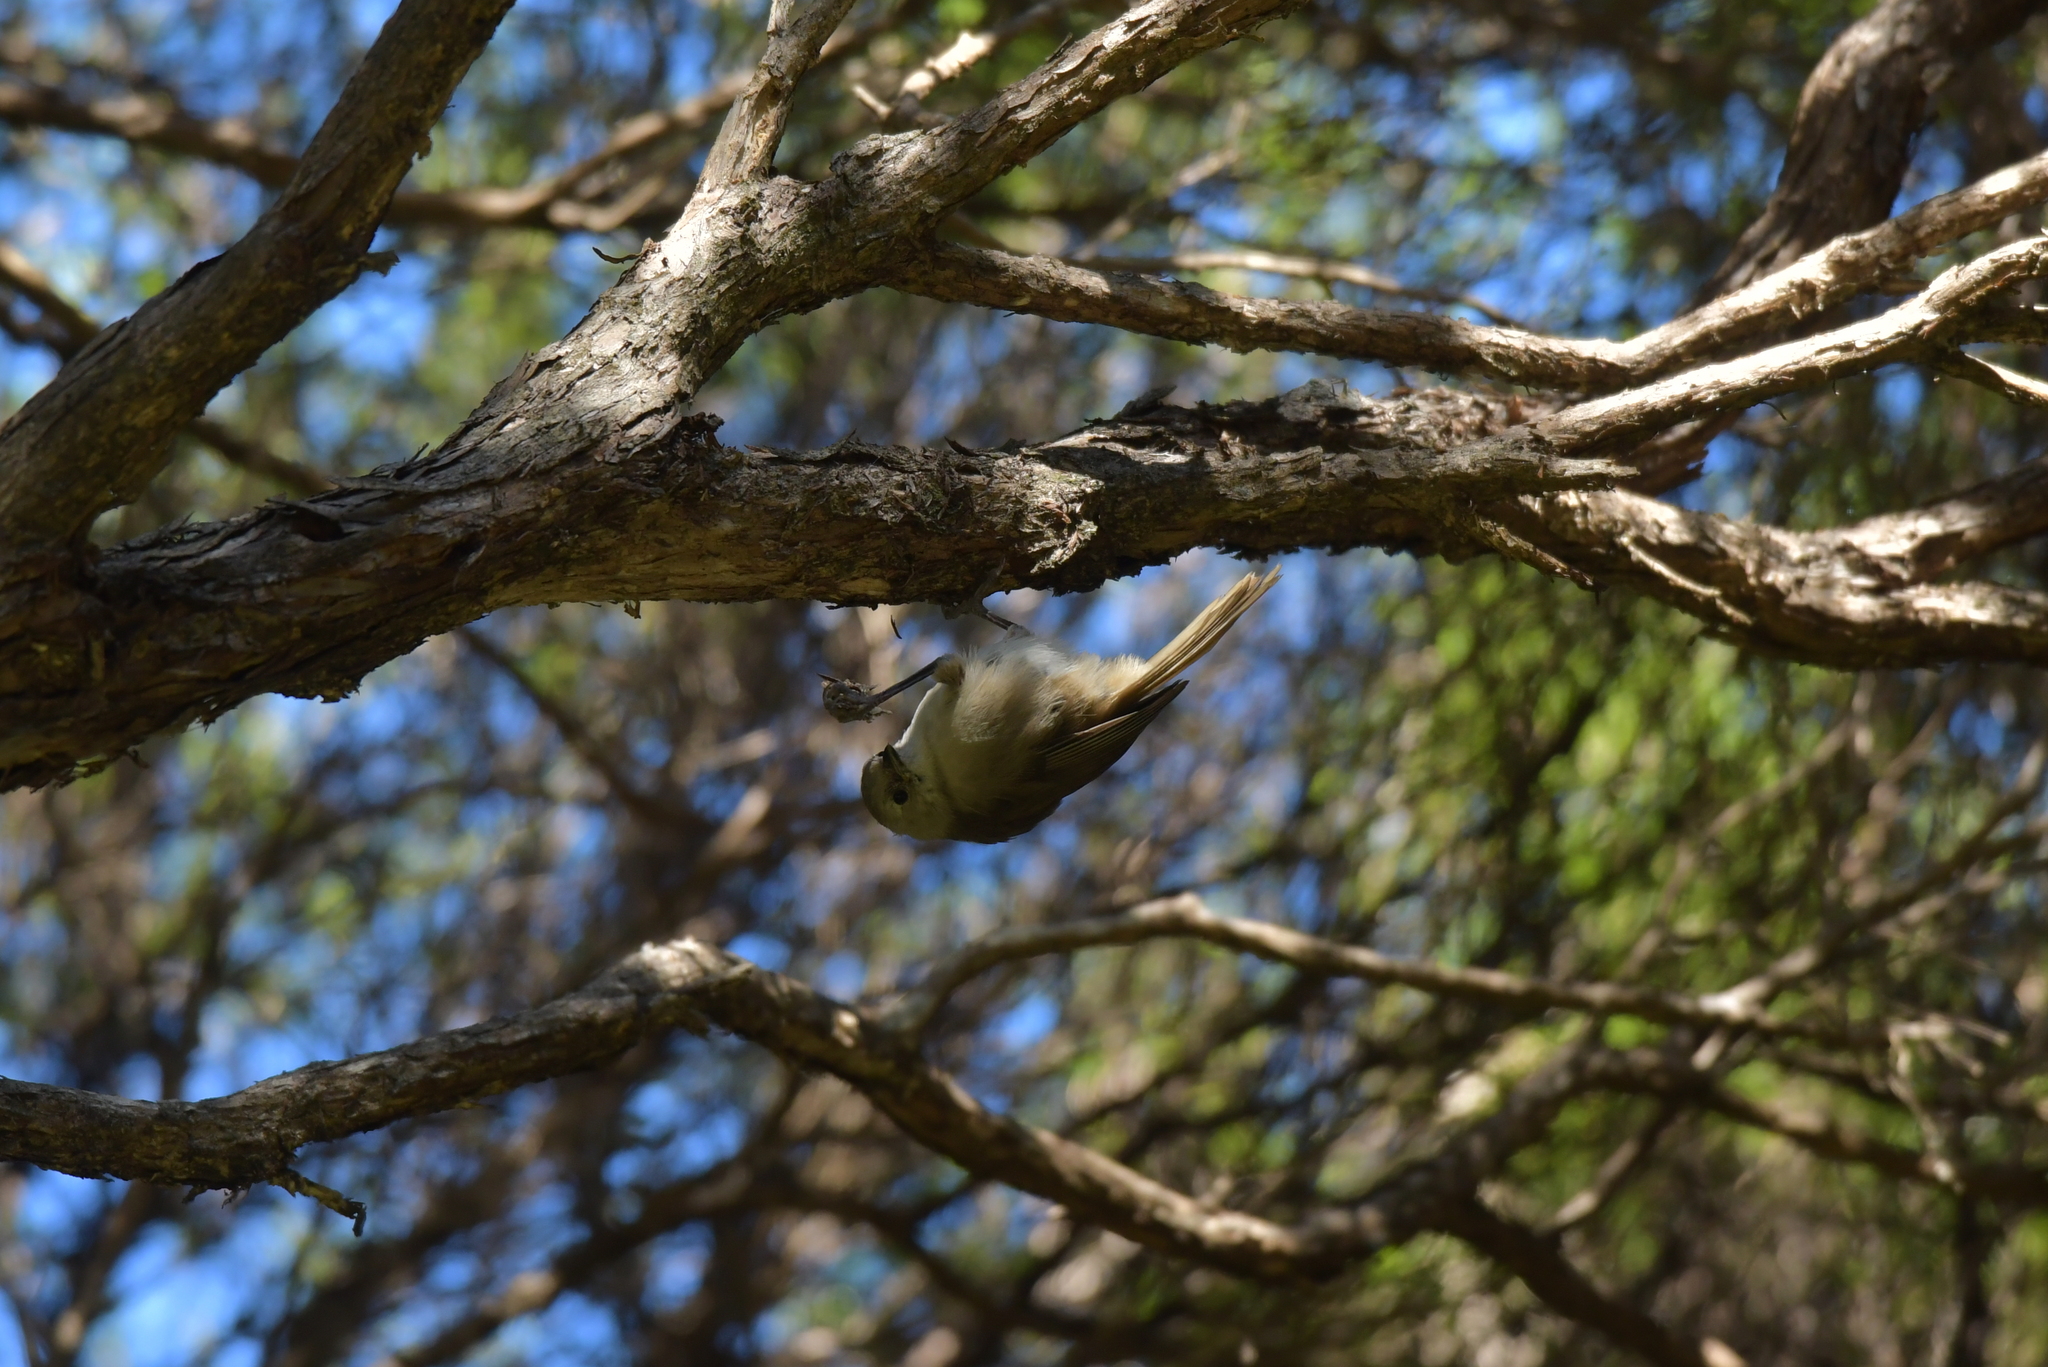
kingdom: Animalia
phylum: Chordata
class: Aves
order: Passeriformes
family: Acanthizidae
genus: Mohoua
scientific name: Mohoua albicilla
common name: Whitehead
